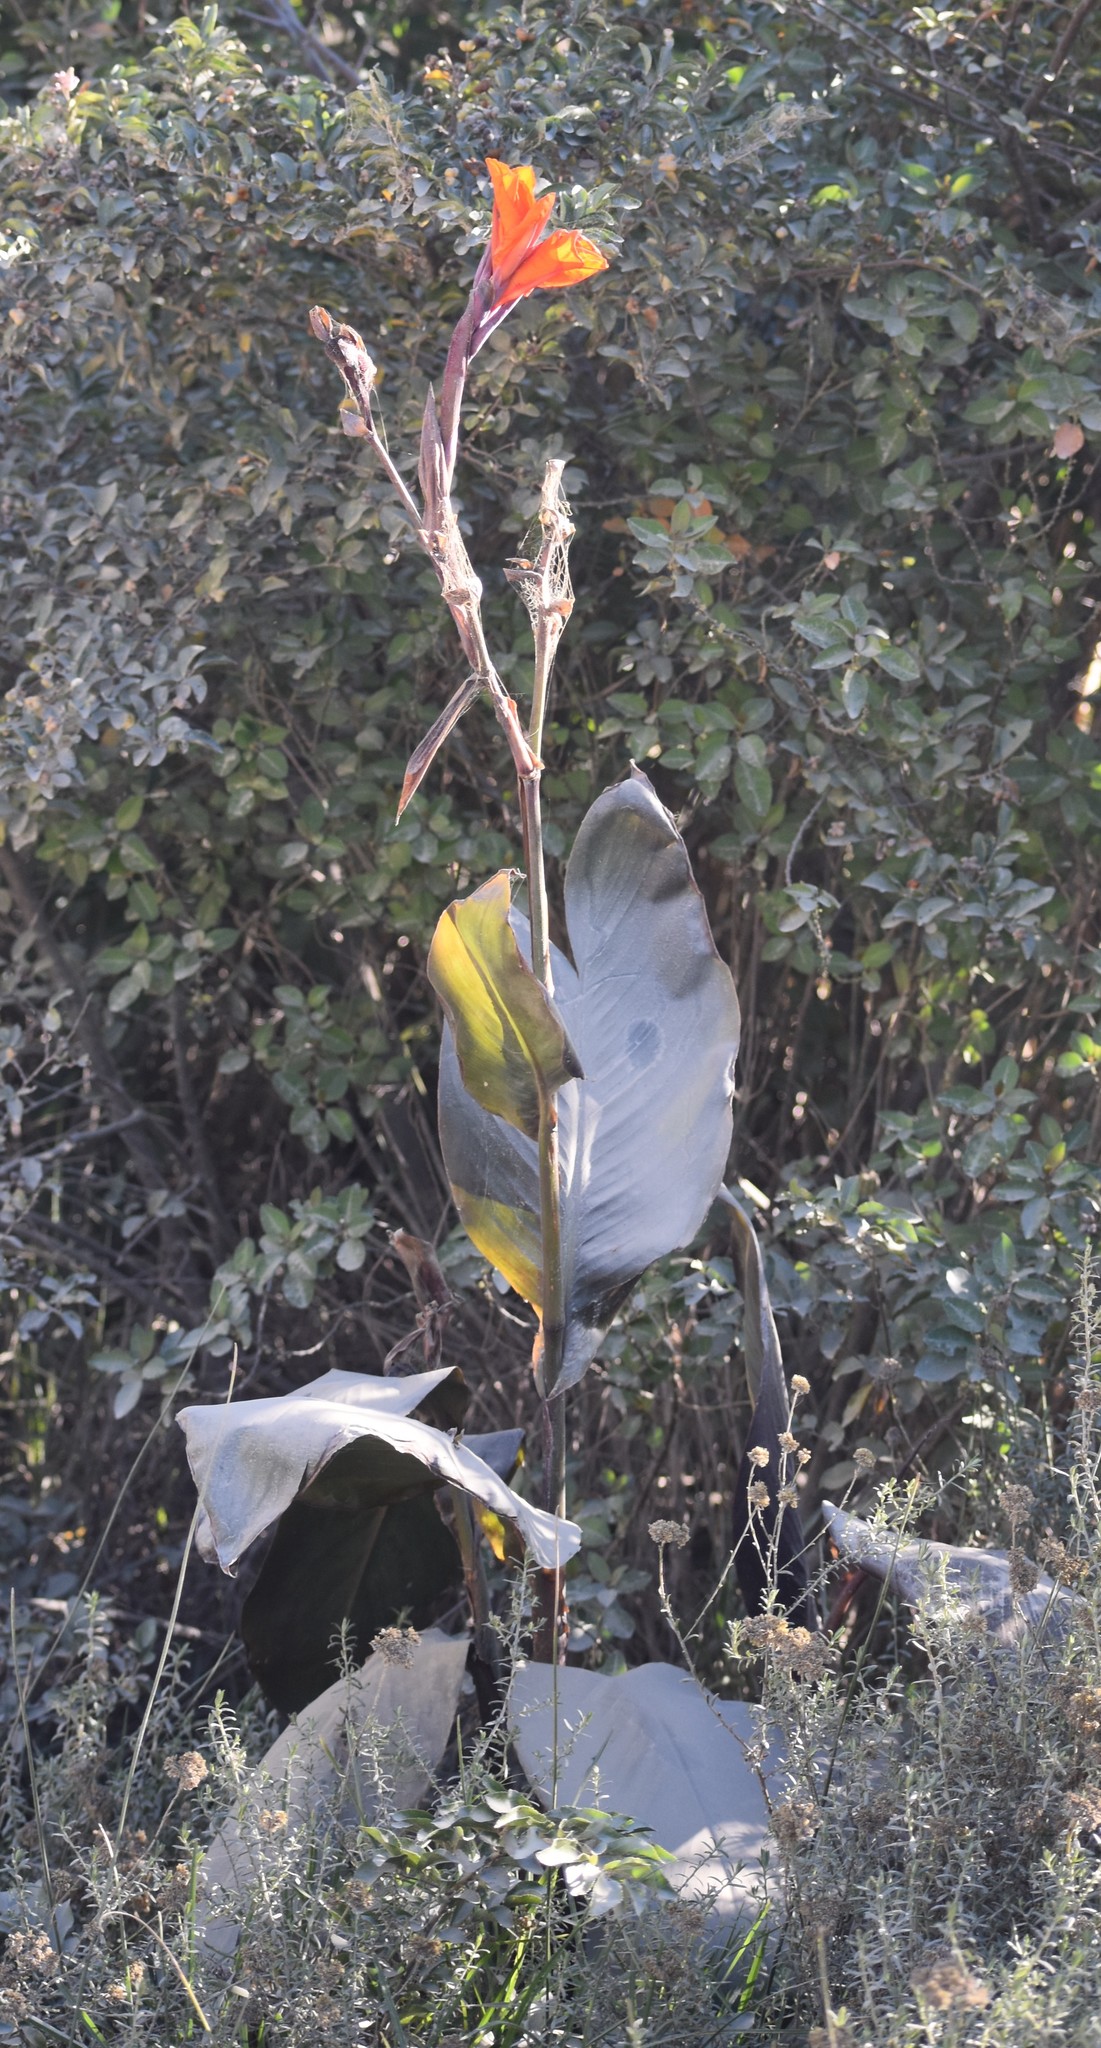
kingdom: Plantae
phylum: Tracheophyta
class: Liliopsida
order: Zingiberales
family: Cannaceae
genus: Canna
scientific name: Canna hybrida
